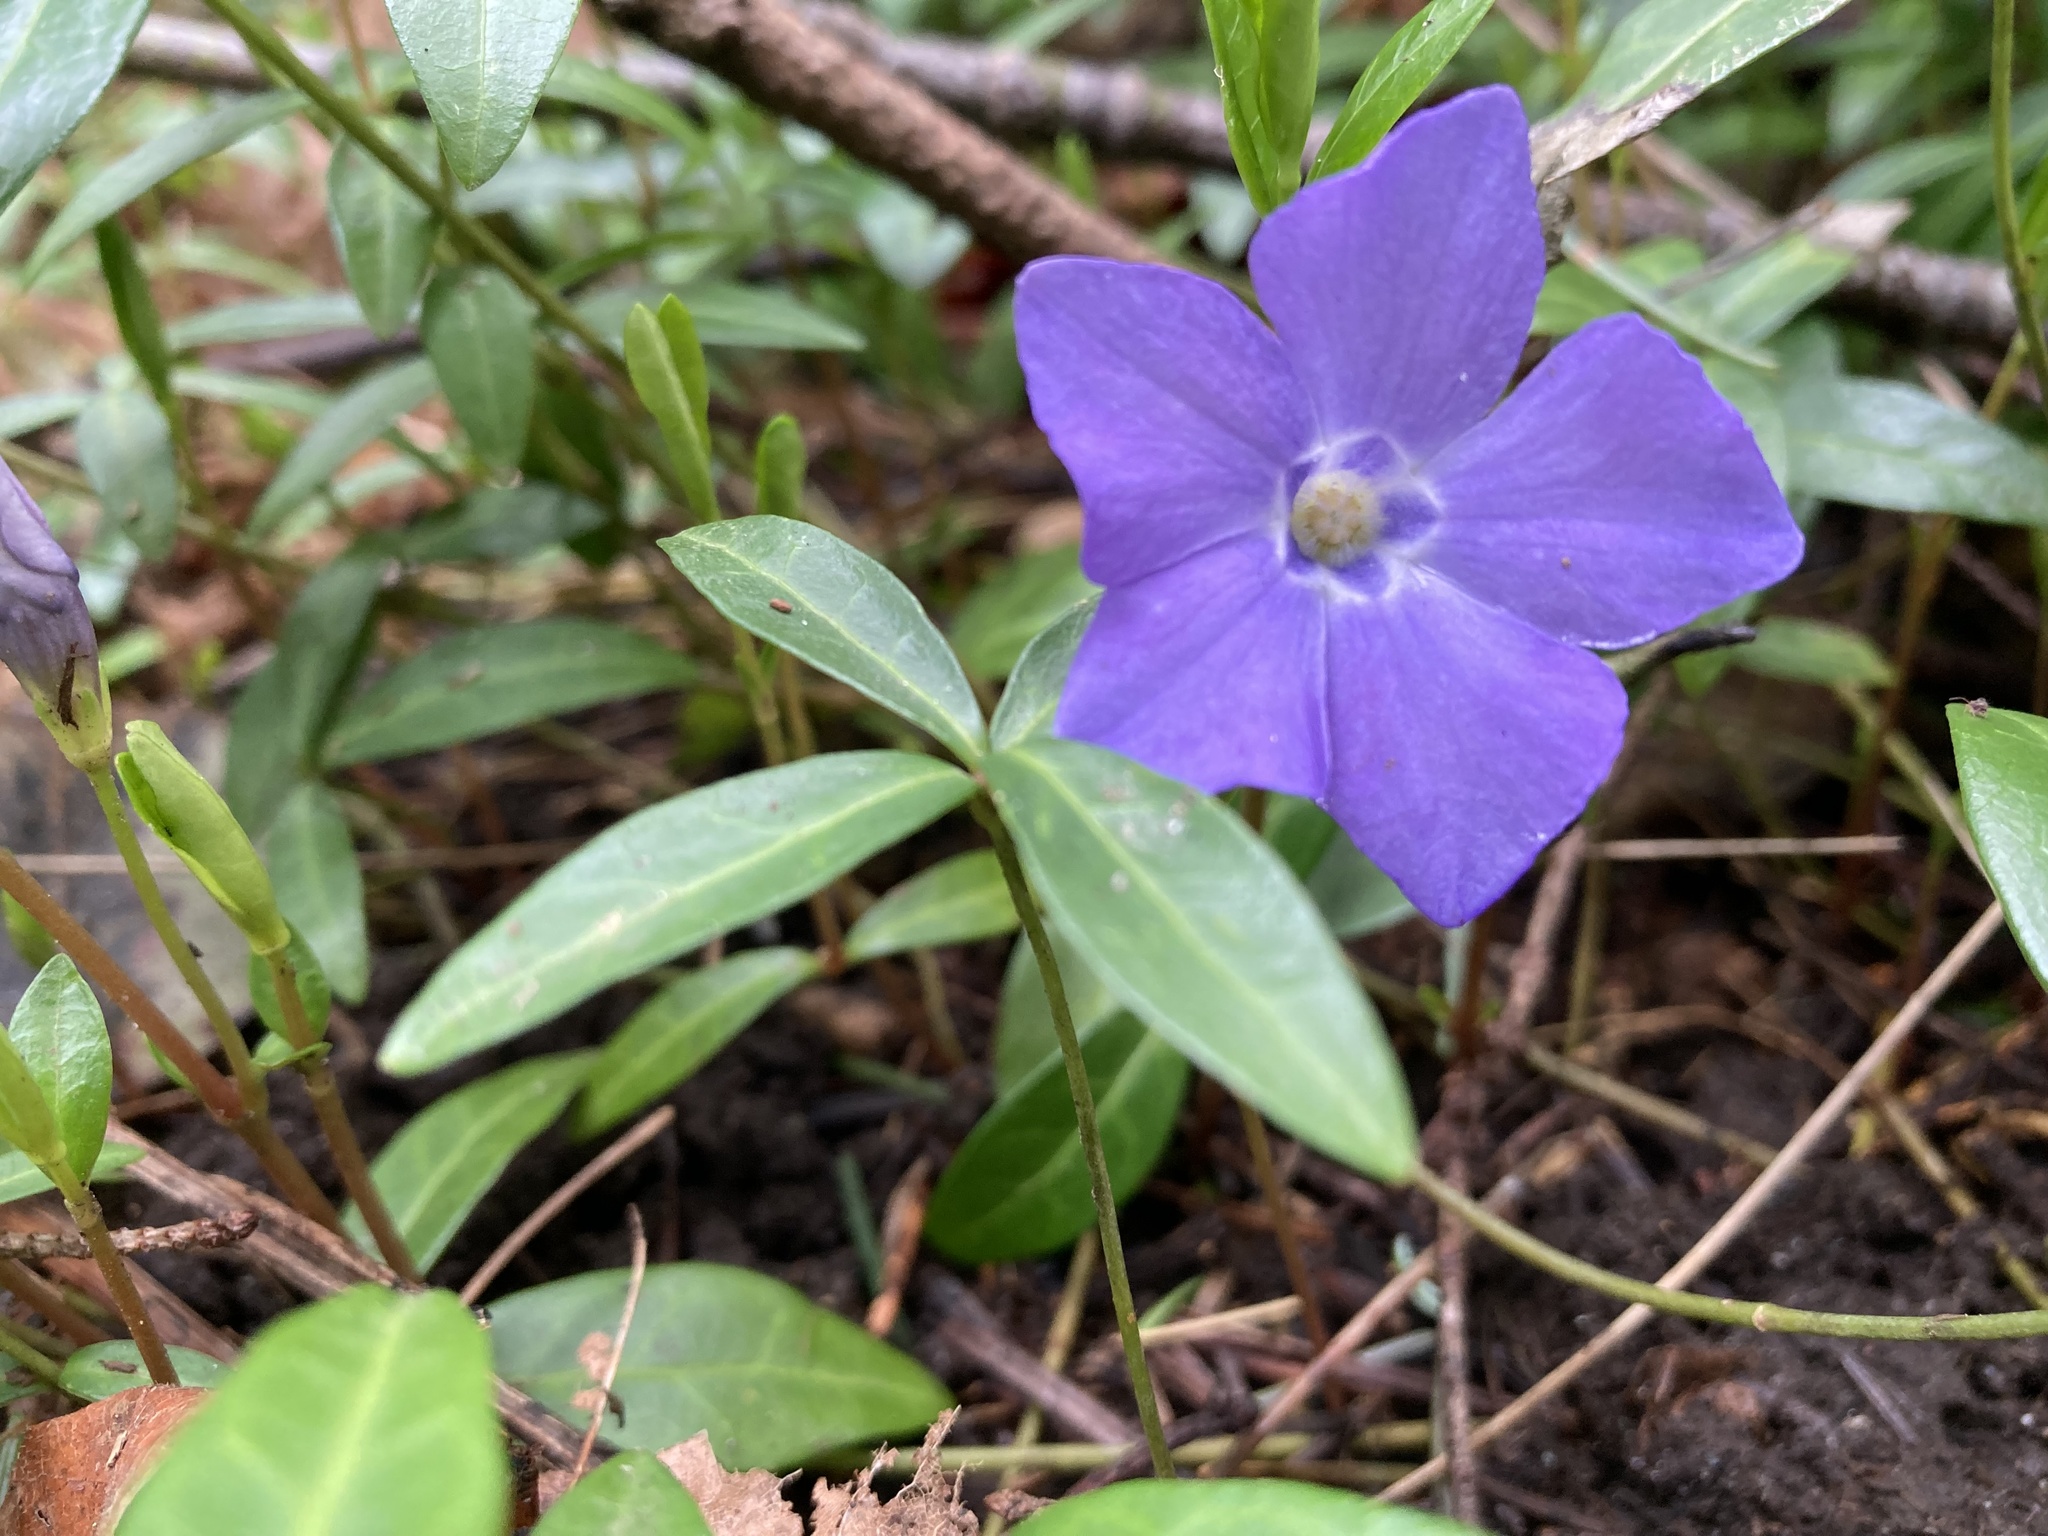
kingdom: Plantae
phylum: Tracheophyta
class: Magnoliopsida
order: Gentianales
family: Apocynaceae
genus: Vinca
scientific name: Vinca minor
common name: Lesser periwinkle
